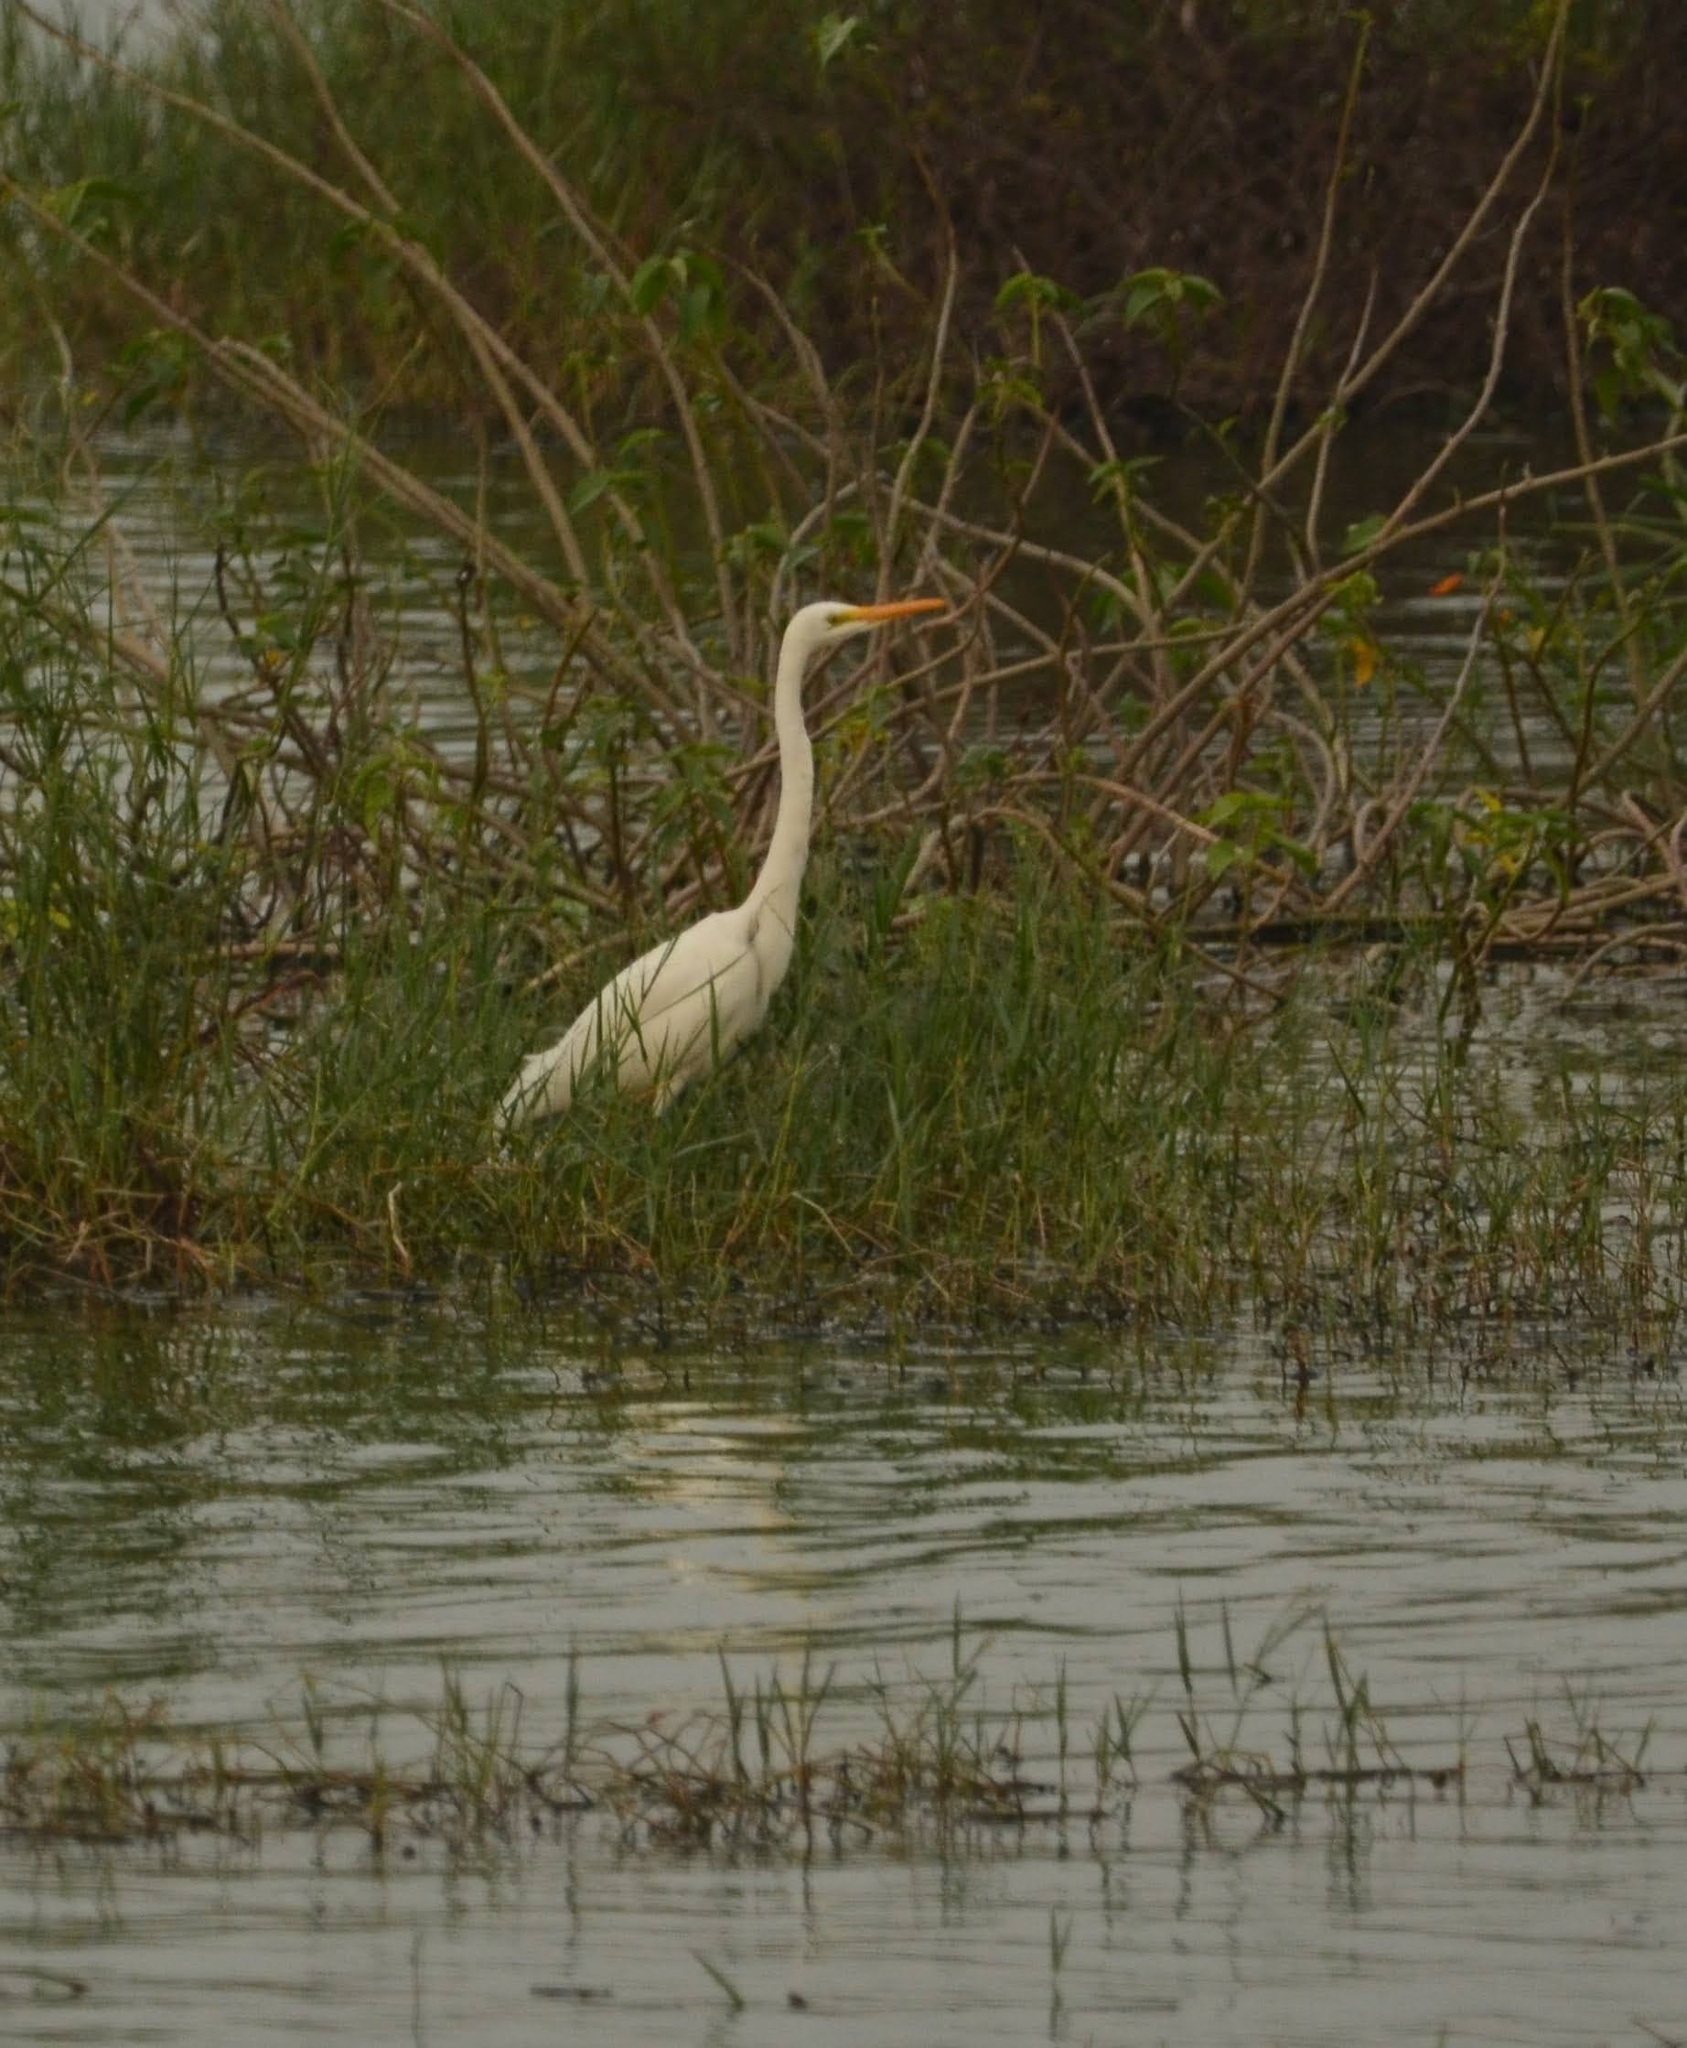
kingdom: Animalia
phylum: Chordata
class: Aves
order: Pelecaniformes
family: Ardeidae
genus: Ardea
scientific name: Ardea alba
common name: Great egret
